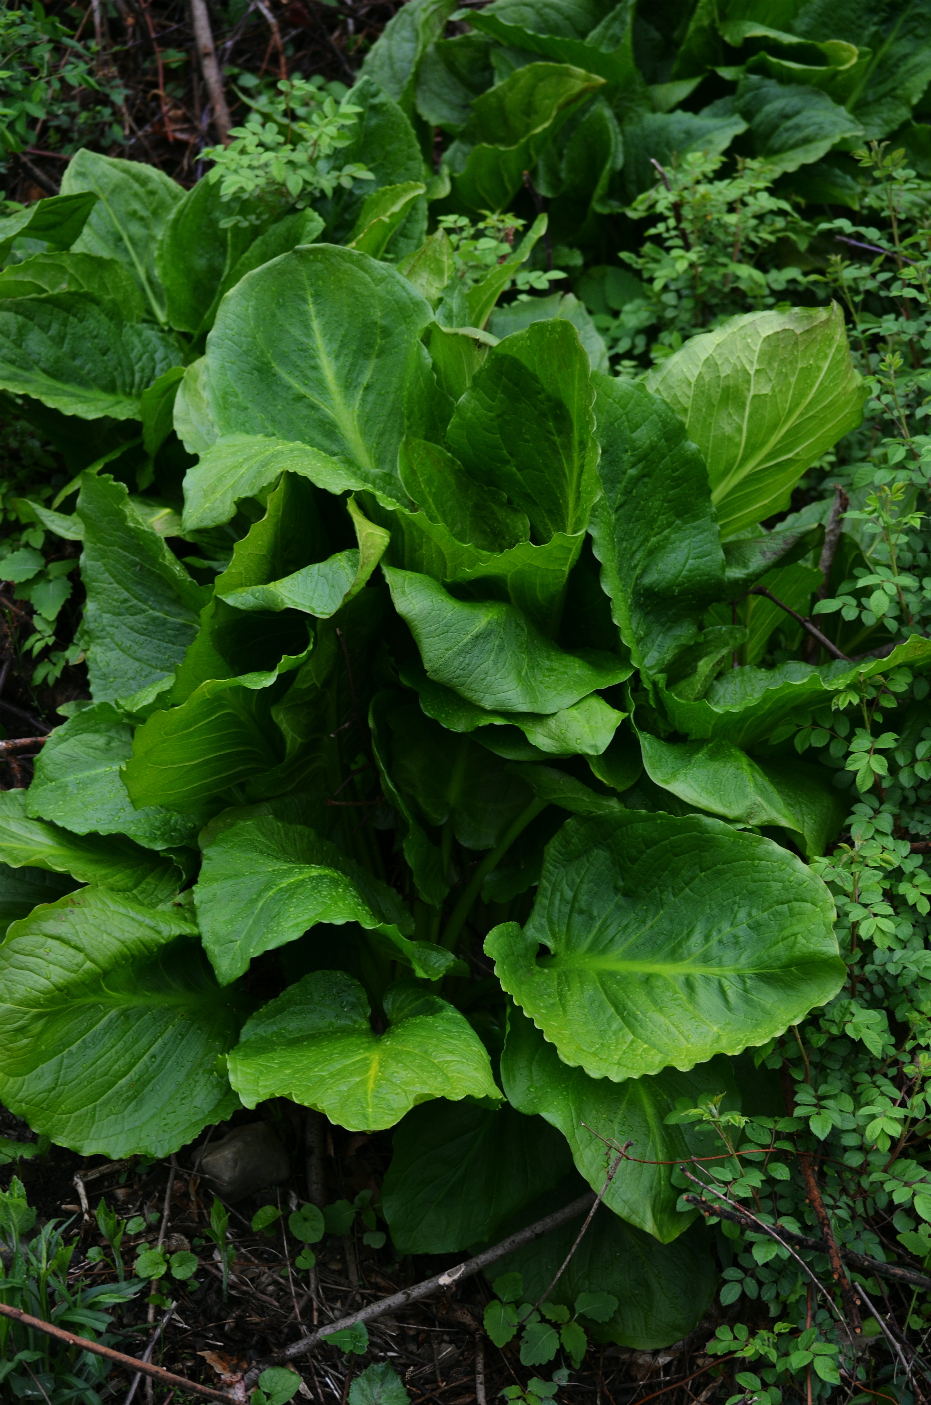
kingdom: Plantae
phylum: Tracheophyta
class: Liliopsida
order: Alismatales
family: Araceae
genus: Symplocarpus
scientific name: Symplocarpus foetidus
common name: Eastern skunk cabbage
